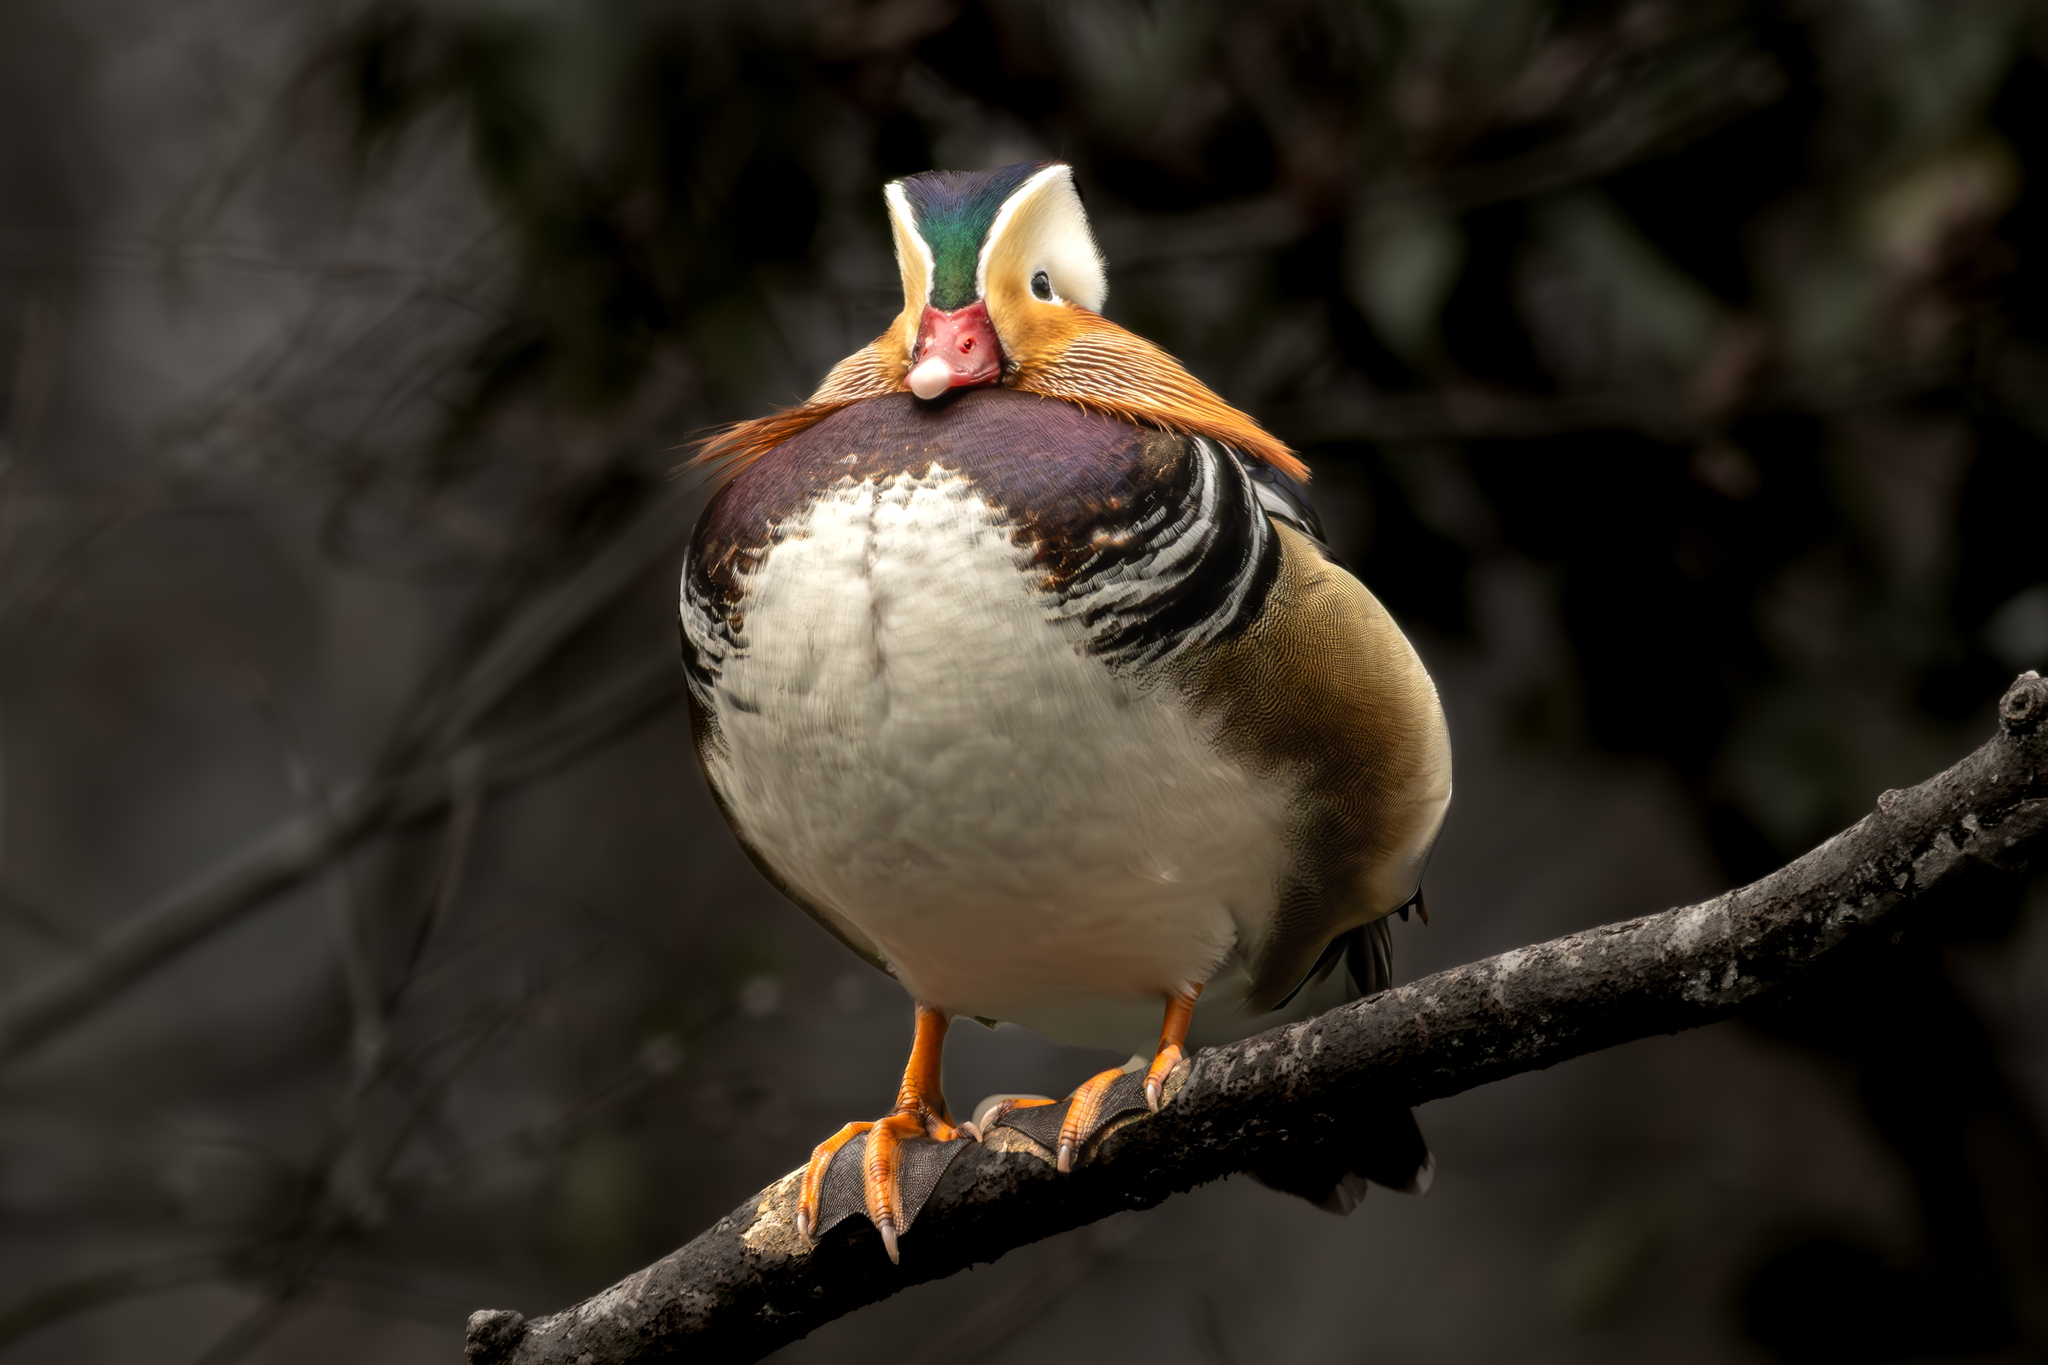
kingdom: Animalia
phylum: Chordata
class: Aves
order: Anseriformes
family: Anatidae
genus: Aix
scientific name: Aix galericulata
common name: Mandarin duck
